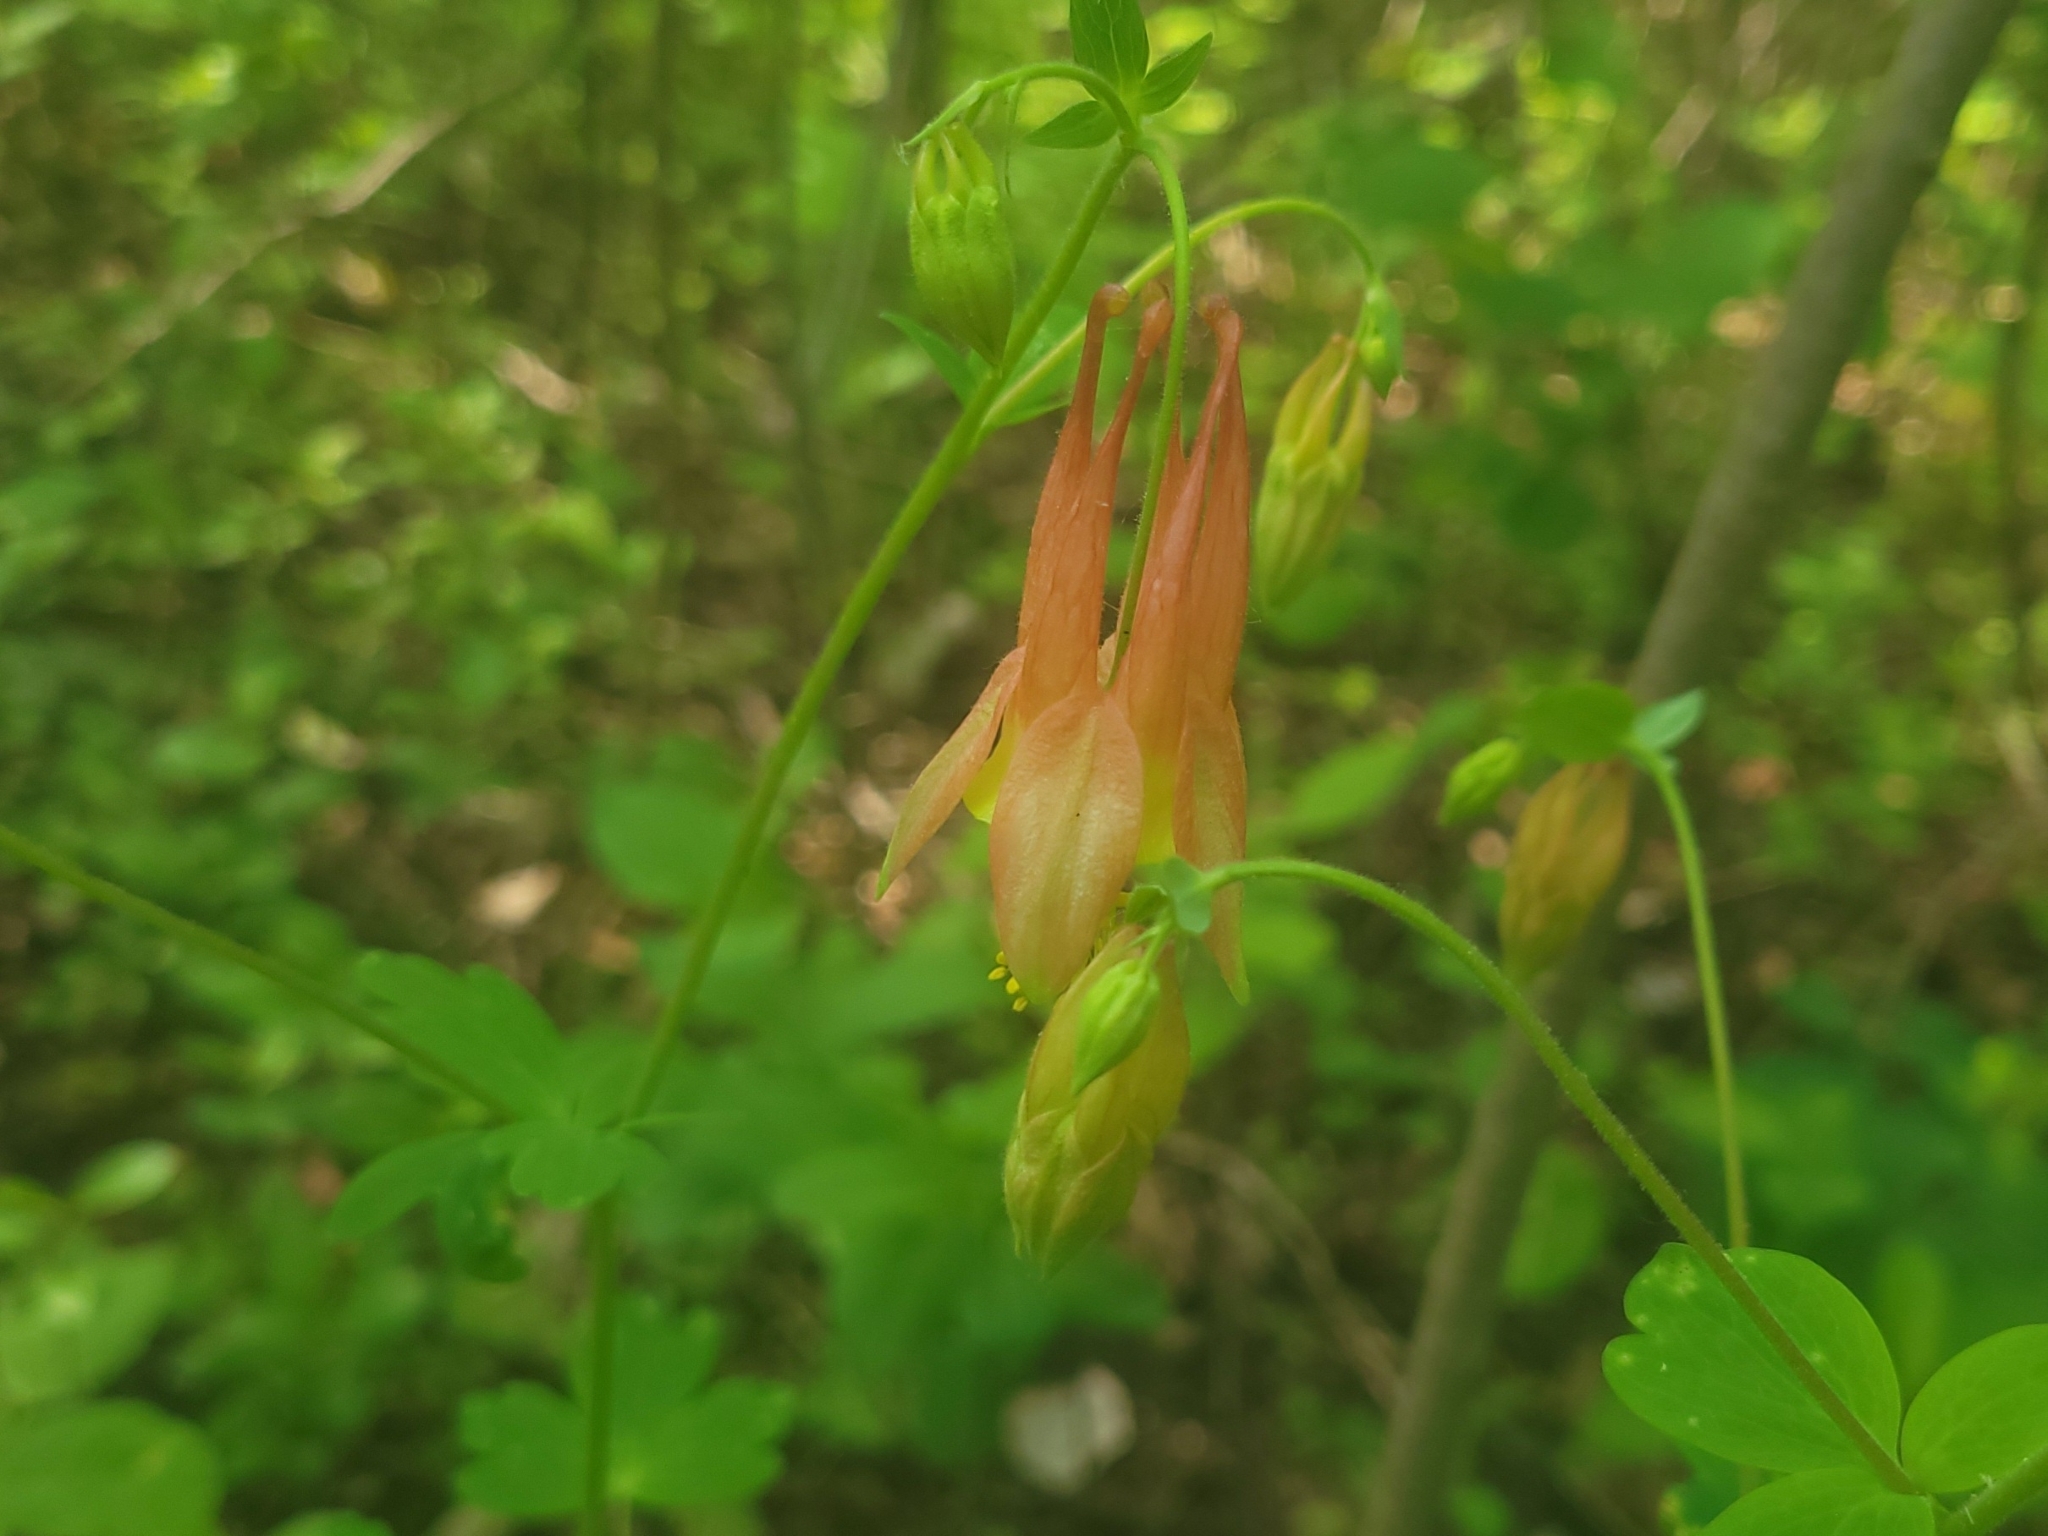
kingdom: Plantae
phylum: Tracheophyta
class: Magnoliopsida
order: Ranunculales
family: Ranunculaceae
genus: Aquilegia
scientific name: Aquilegia canadensis
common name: American columbine
